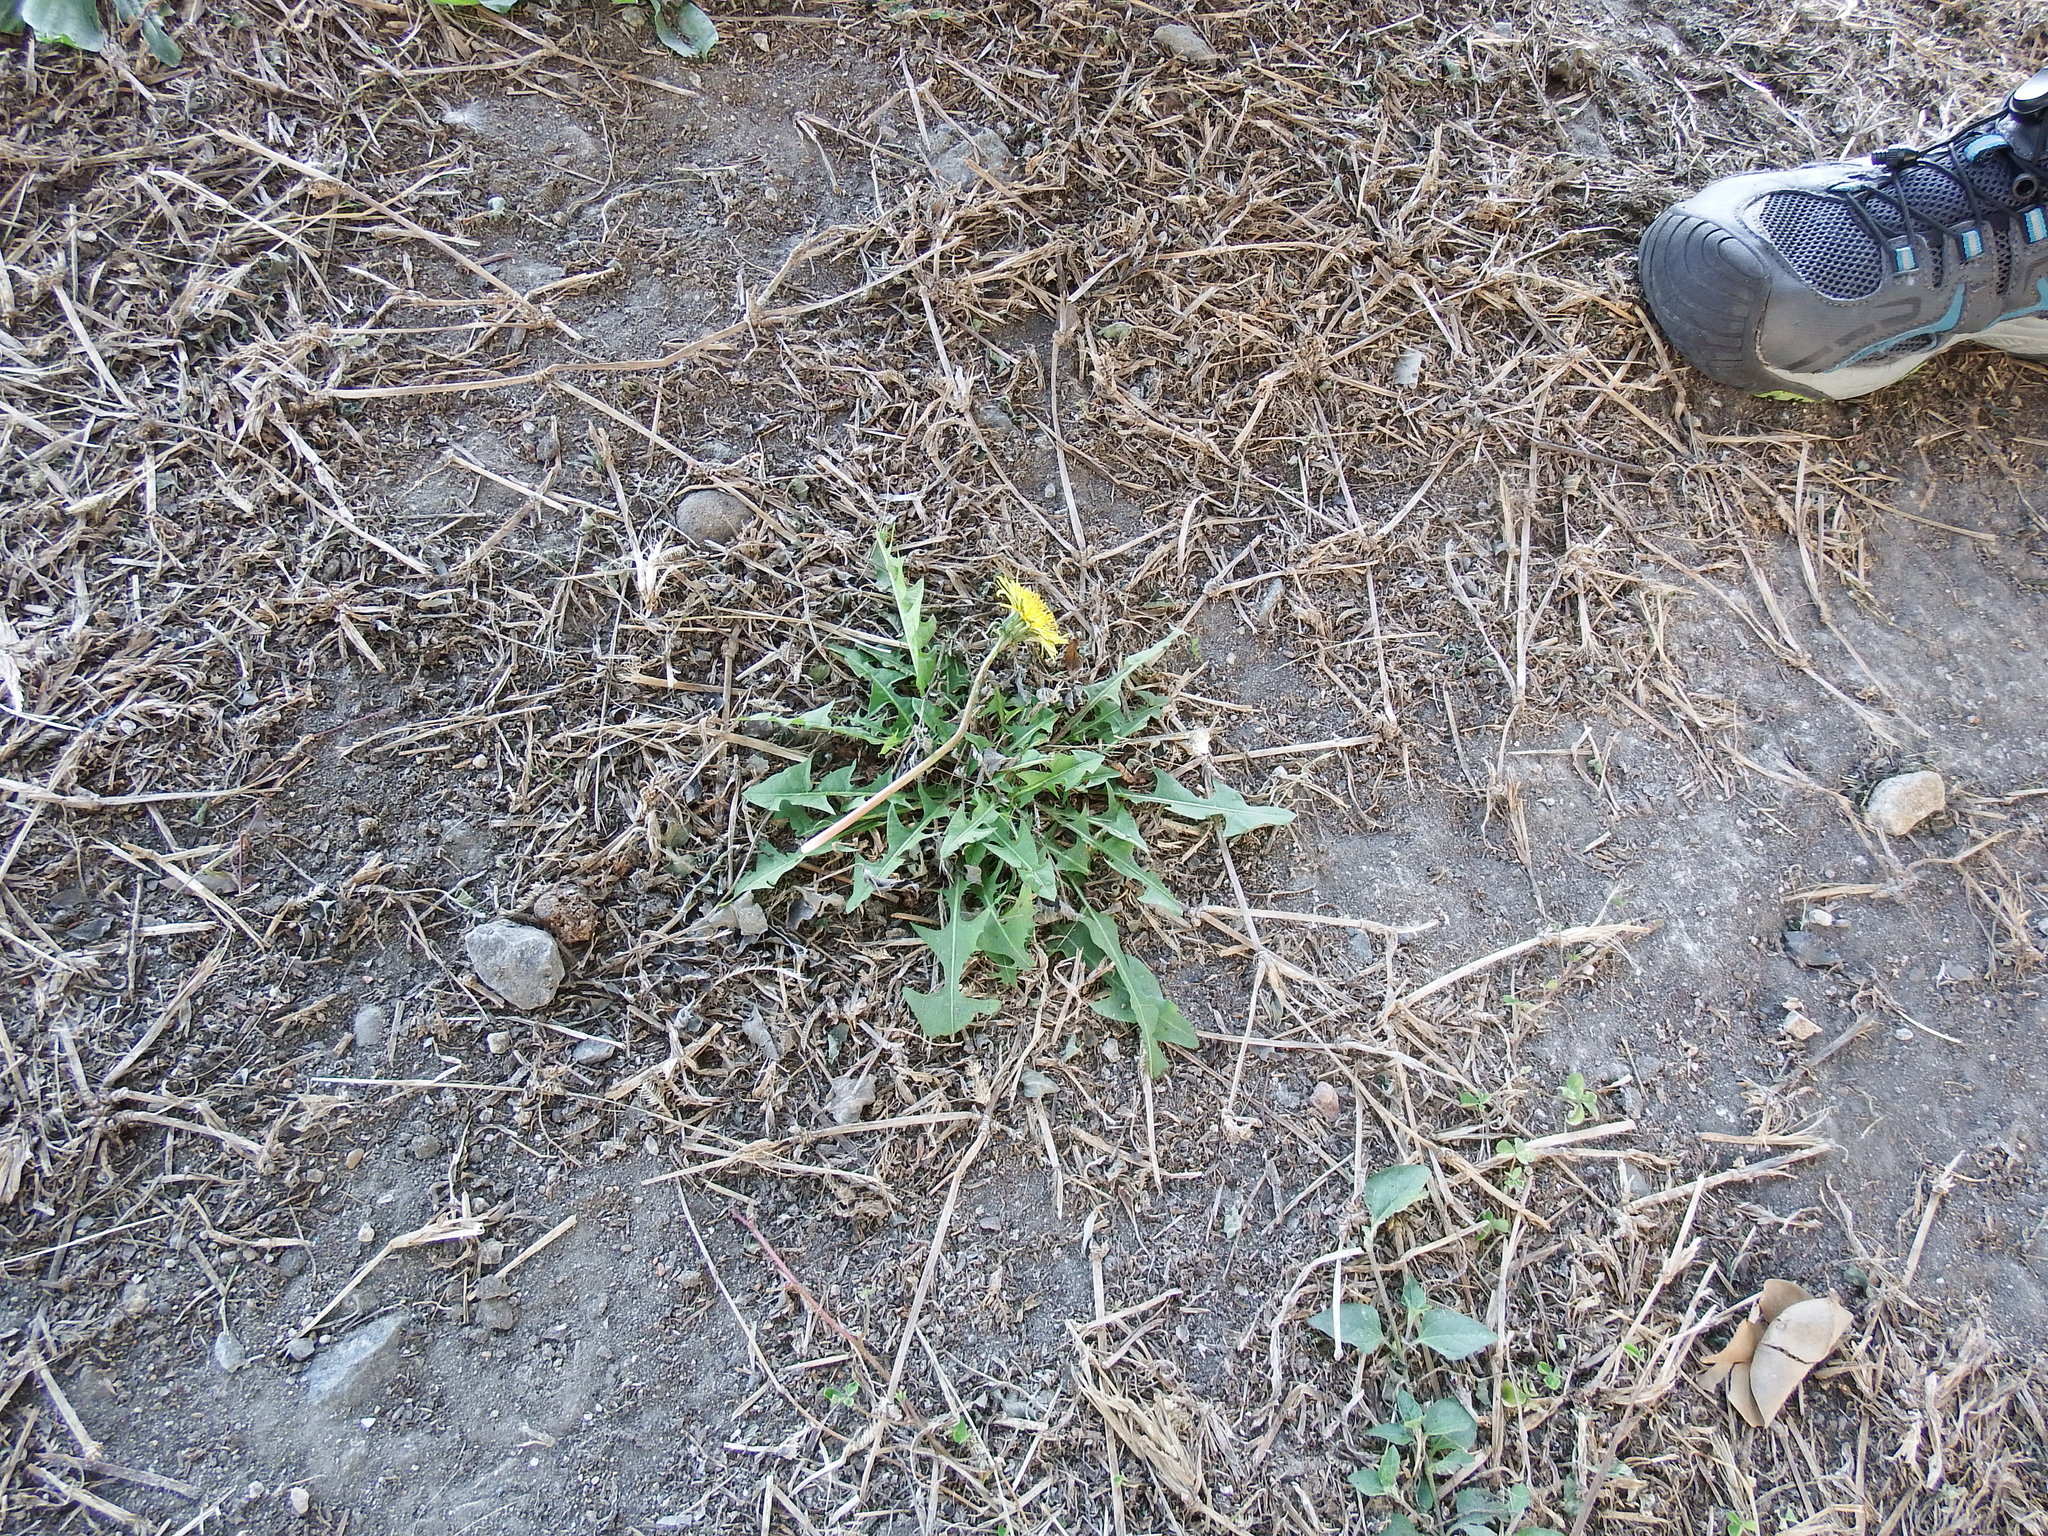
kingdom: Plantae
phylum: Tracheophyta
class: Magnoliopsida
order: Asterales
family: Asteraceae
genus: Taraxacum
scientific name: Taraxacum officinale
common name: Common dandelion
